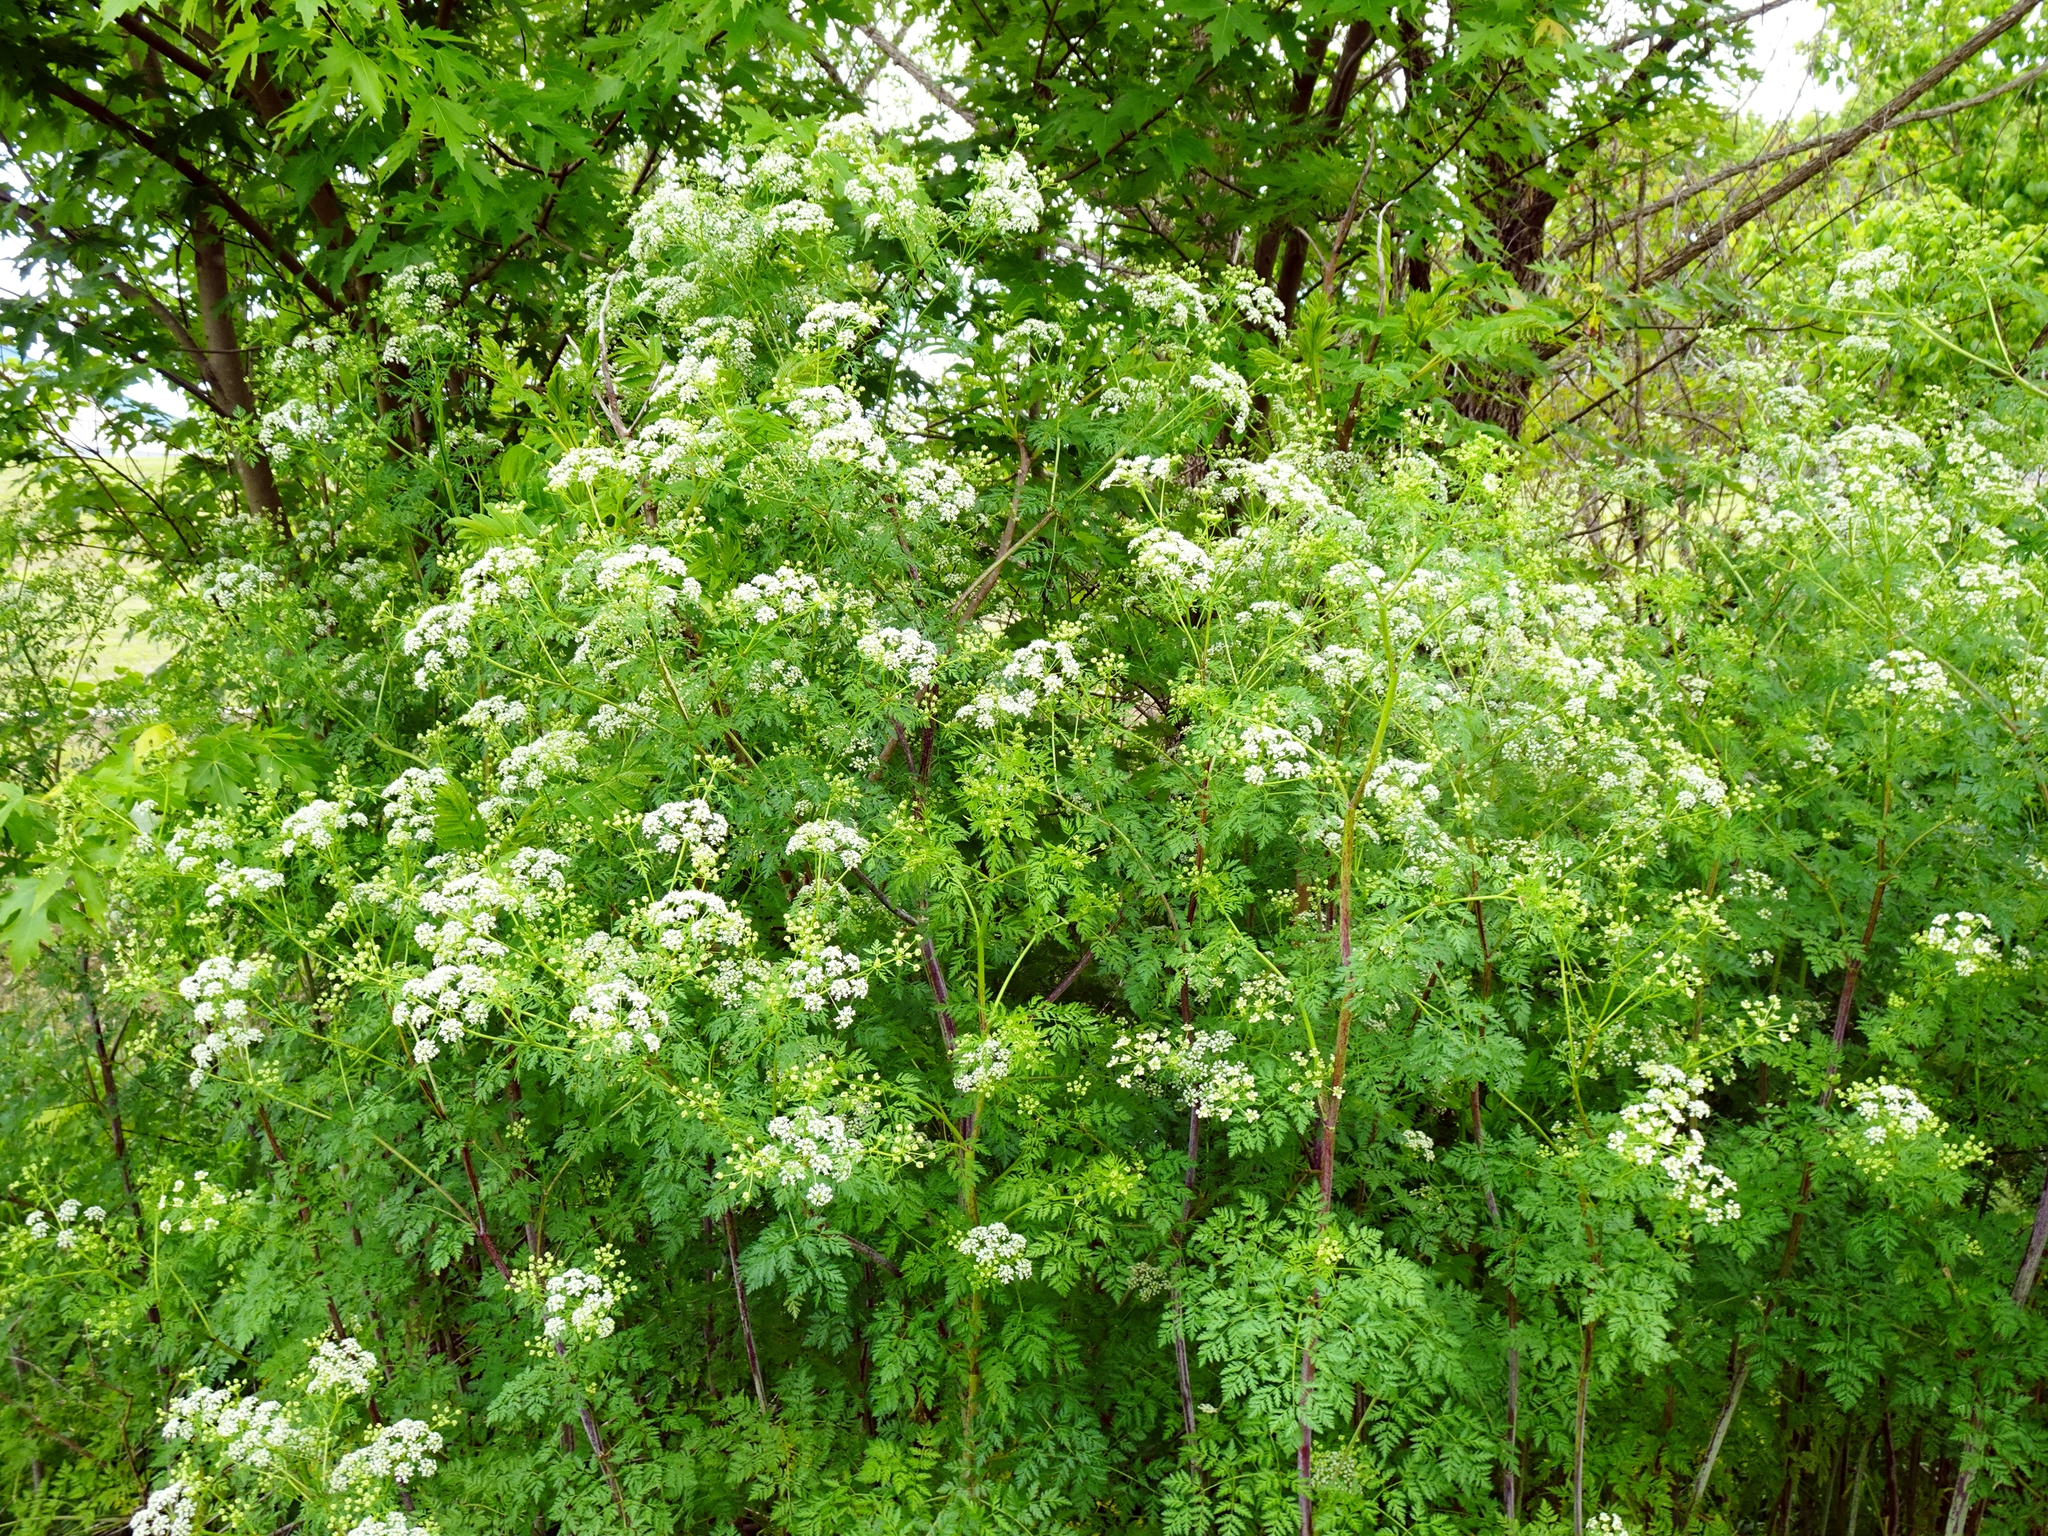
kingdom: Plantae
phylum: Tracheophyta
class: Magnoliopsida
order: Apiales
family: Apiaceae
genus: Conium
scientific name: Conium maculatum
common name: Hemlock
